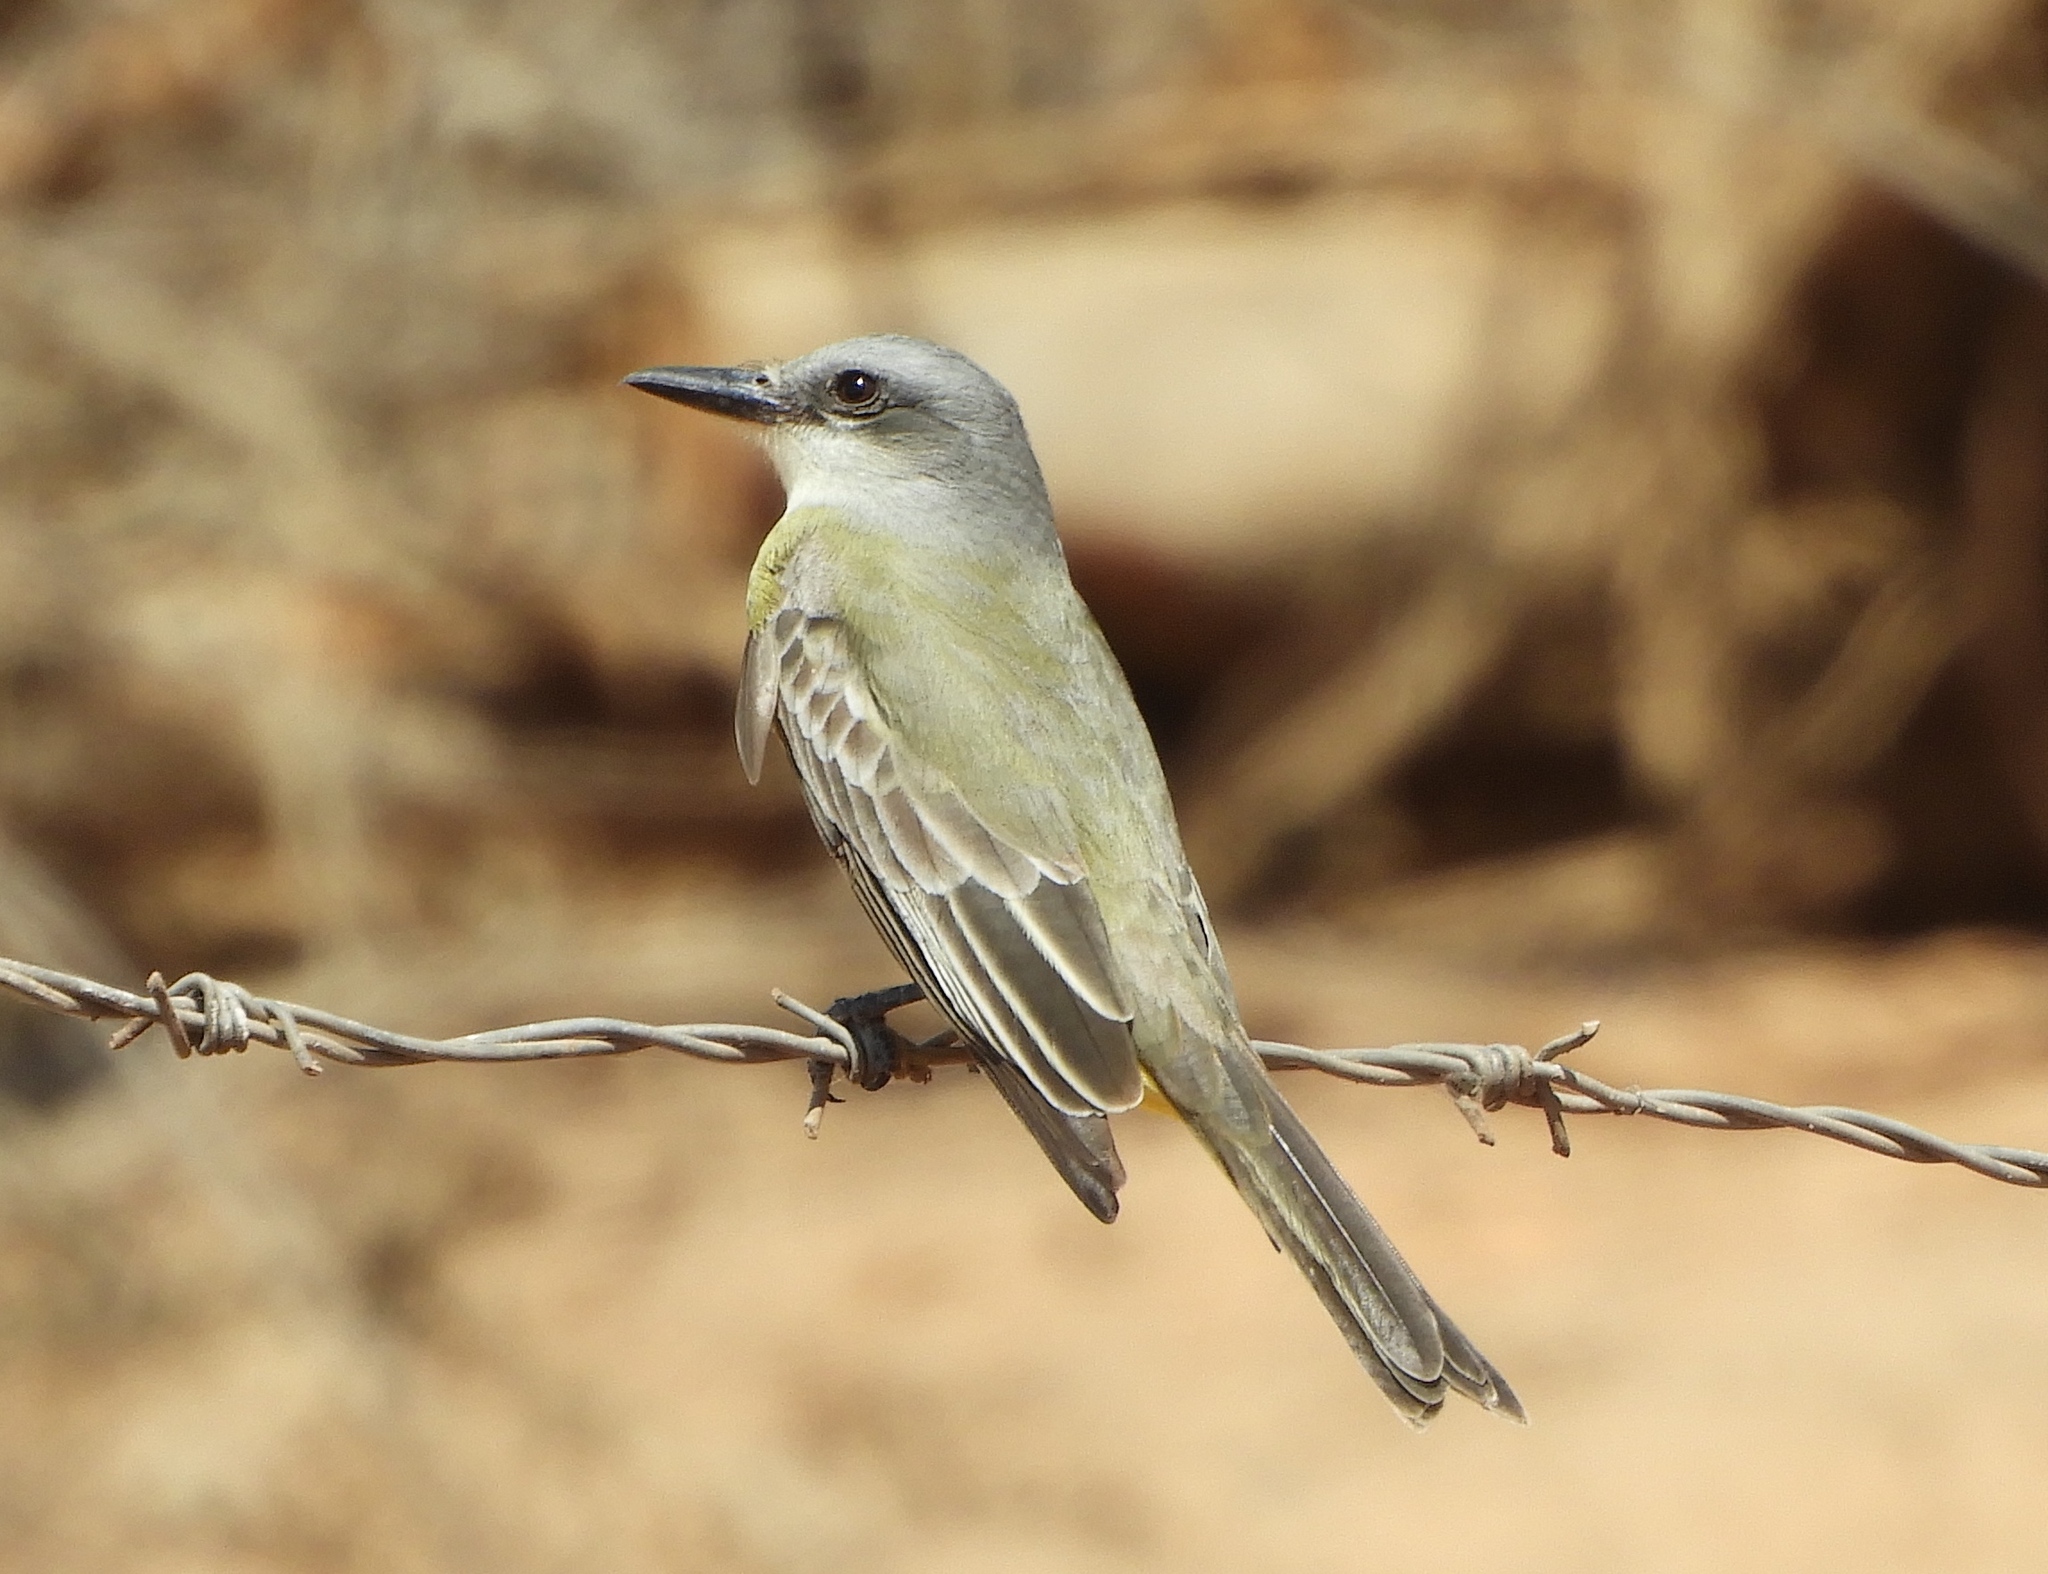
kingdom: Animalia
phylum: Chordata
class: Aves
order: Passeriformes
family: Tyrannidae
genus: Tyrannus
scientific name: Tyrannus melancholicus
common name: Tropical kingbird
